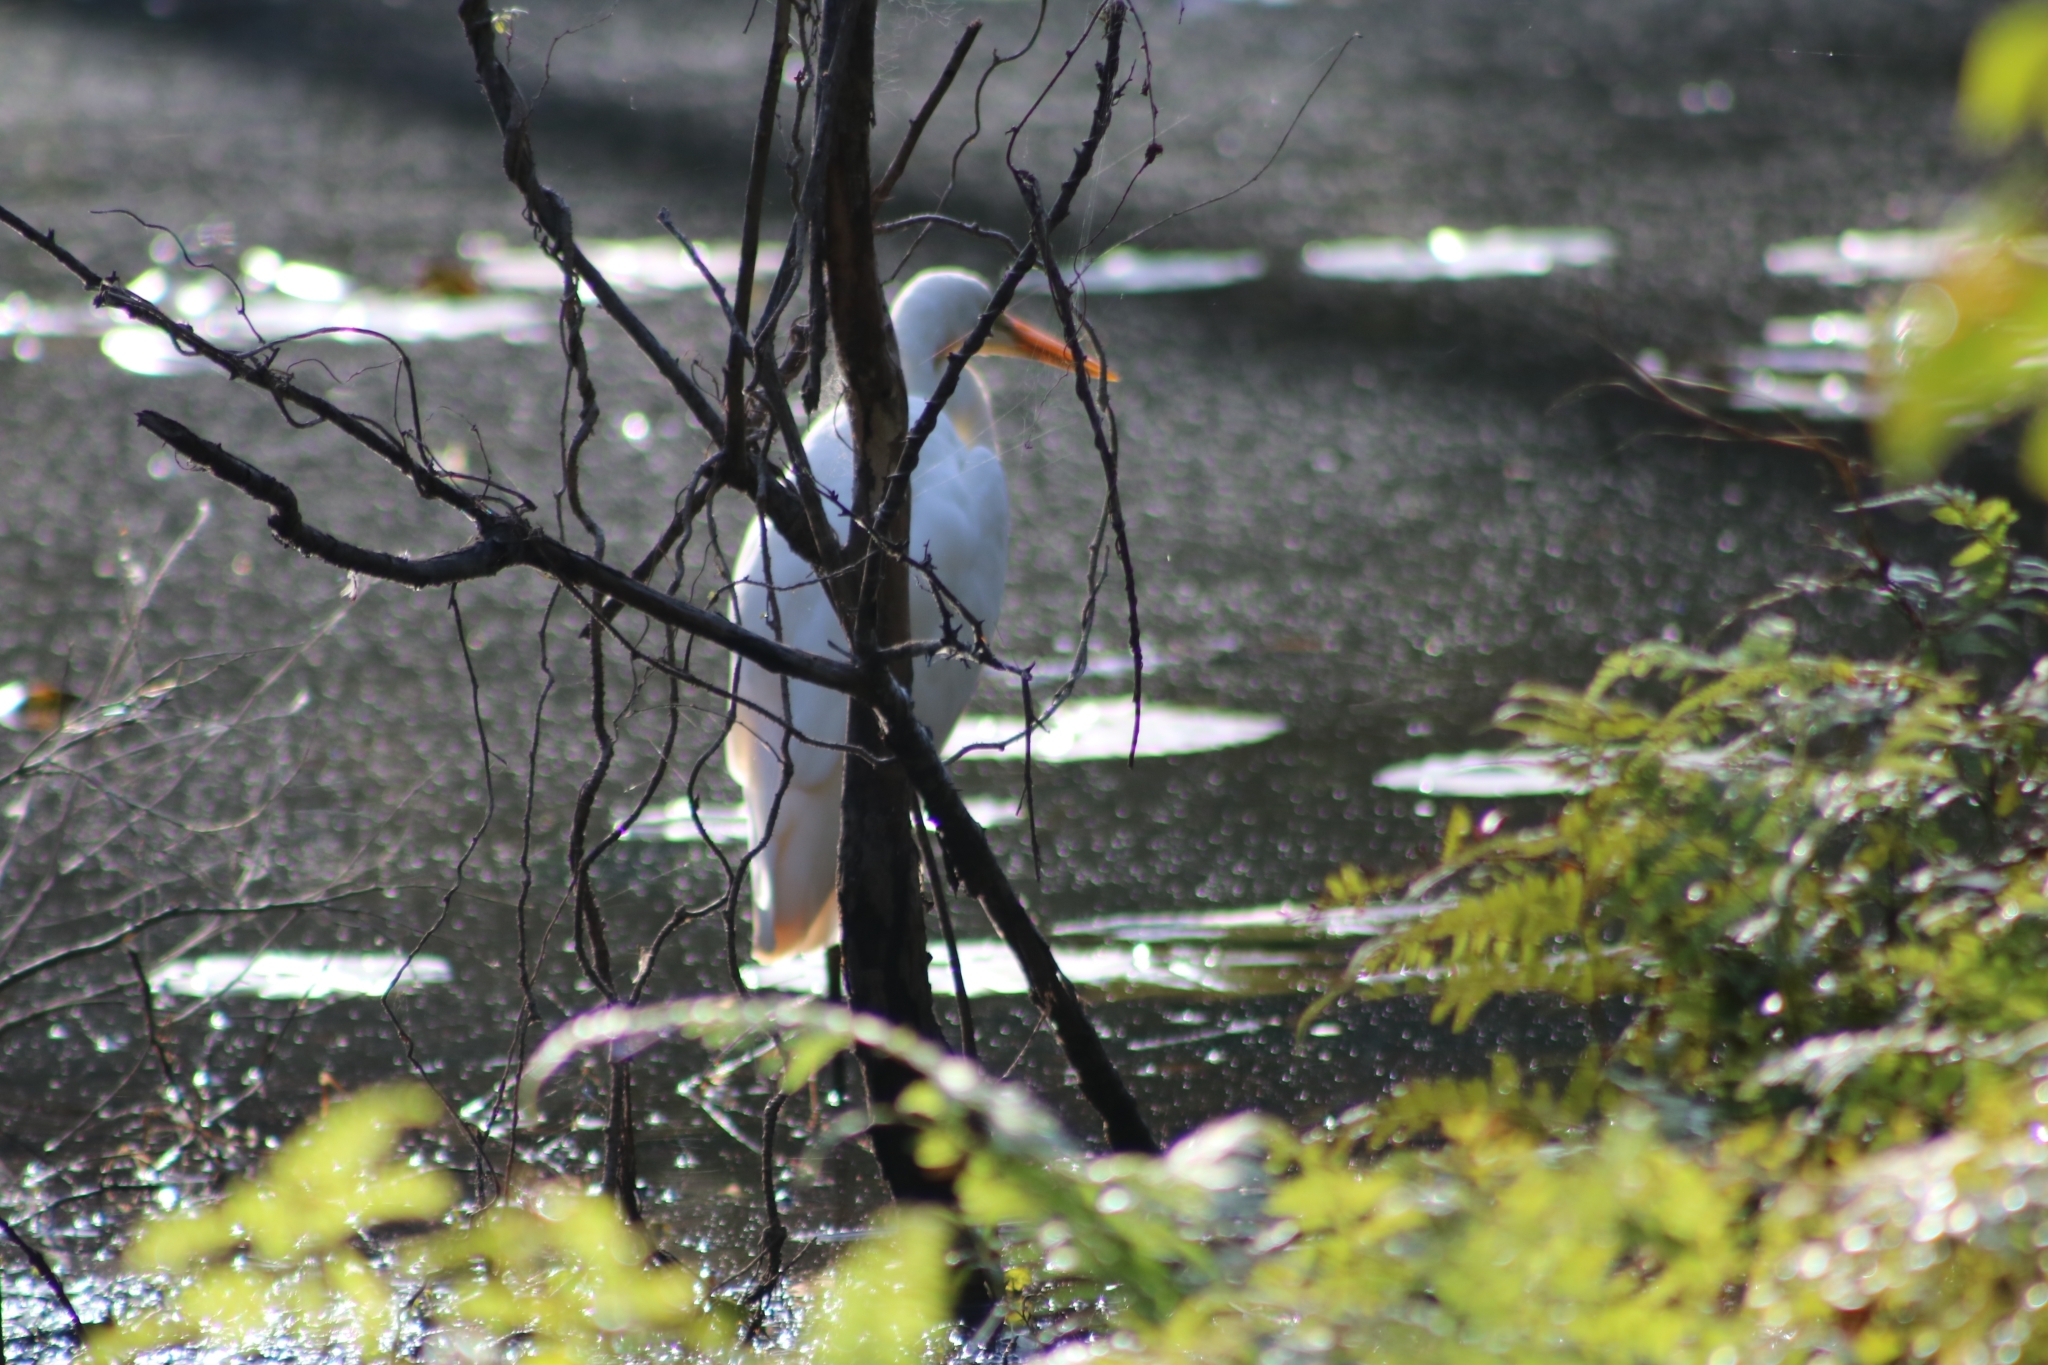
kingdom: Animalia
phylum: Chordata
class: Aves
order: Pelecaniformes
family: Ardeidae
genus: Ardea
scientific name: Ardea alba
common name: Great egret
